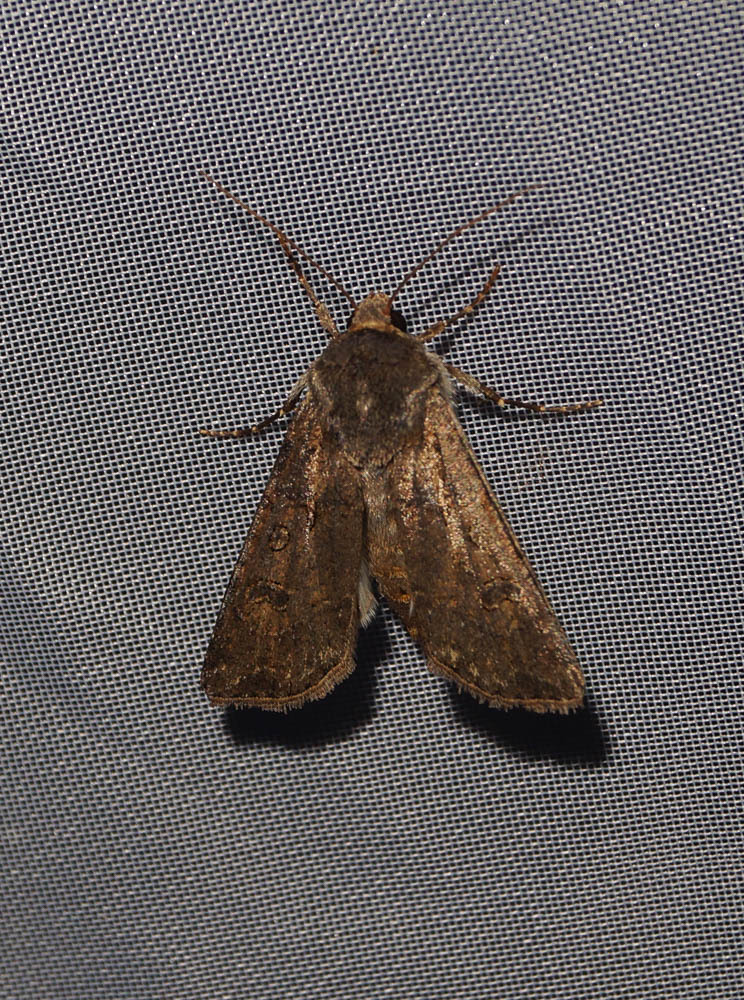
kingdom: Animalia
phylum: Arthropoda
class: Insecta
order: Lepidoptera
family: Noctuidae
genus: Agrotis
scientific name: Agrotis segetum
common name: Turnip moth
